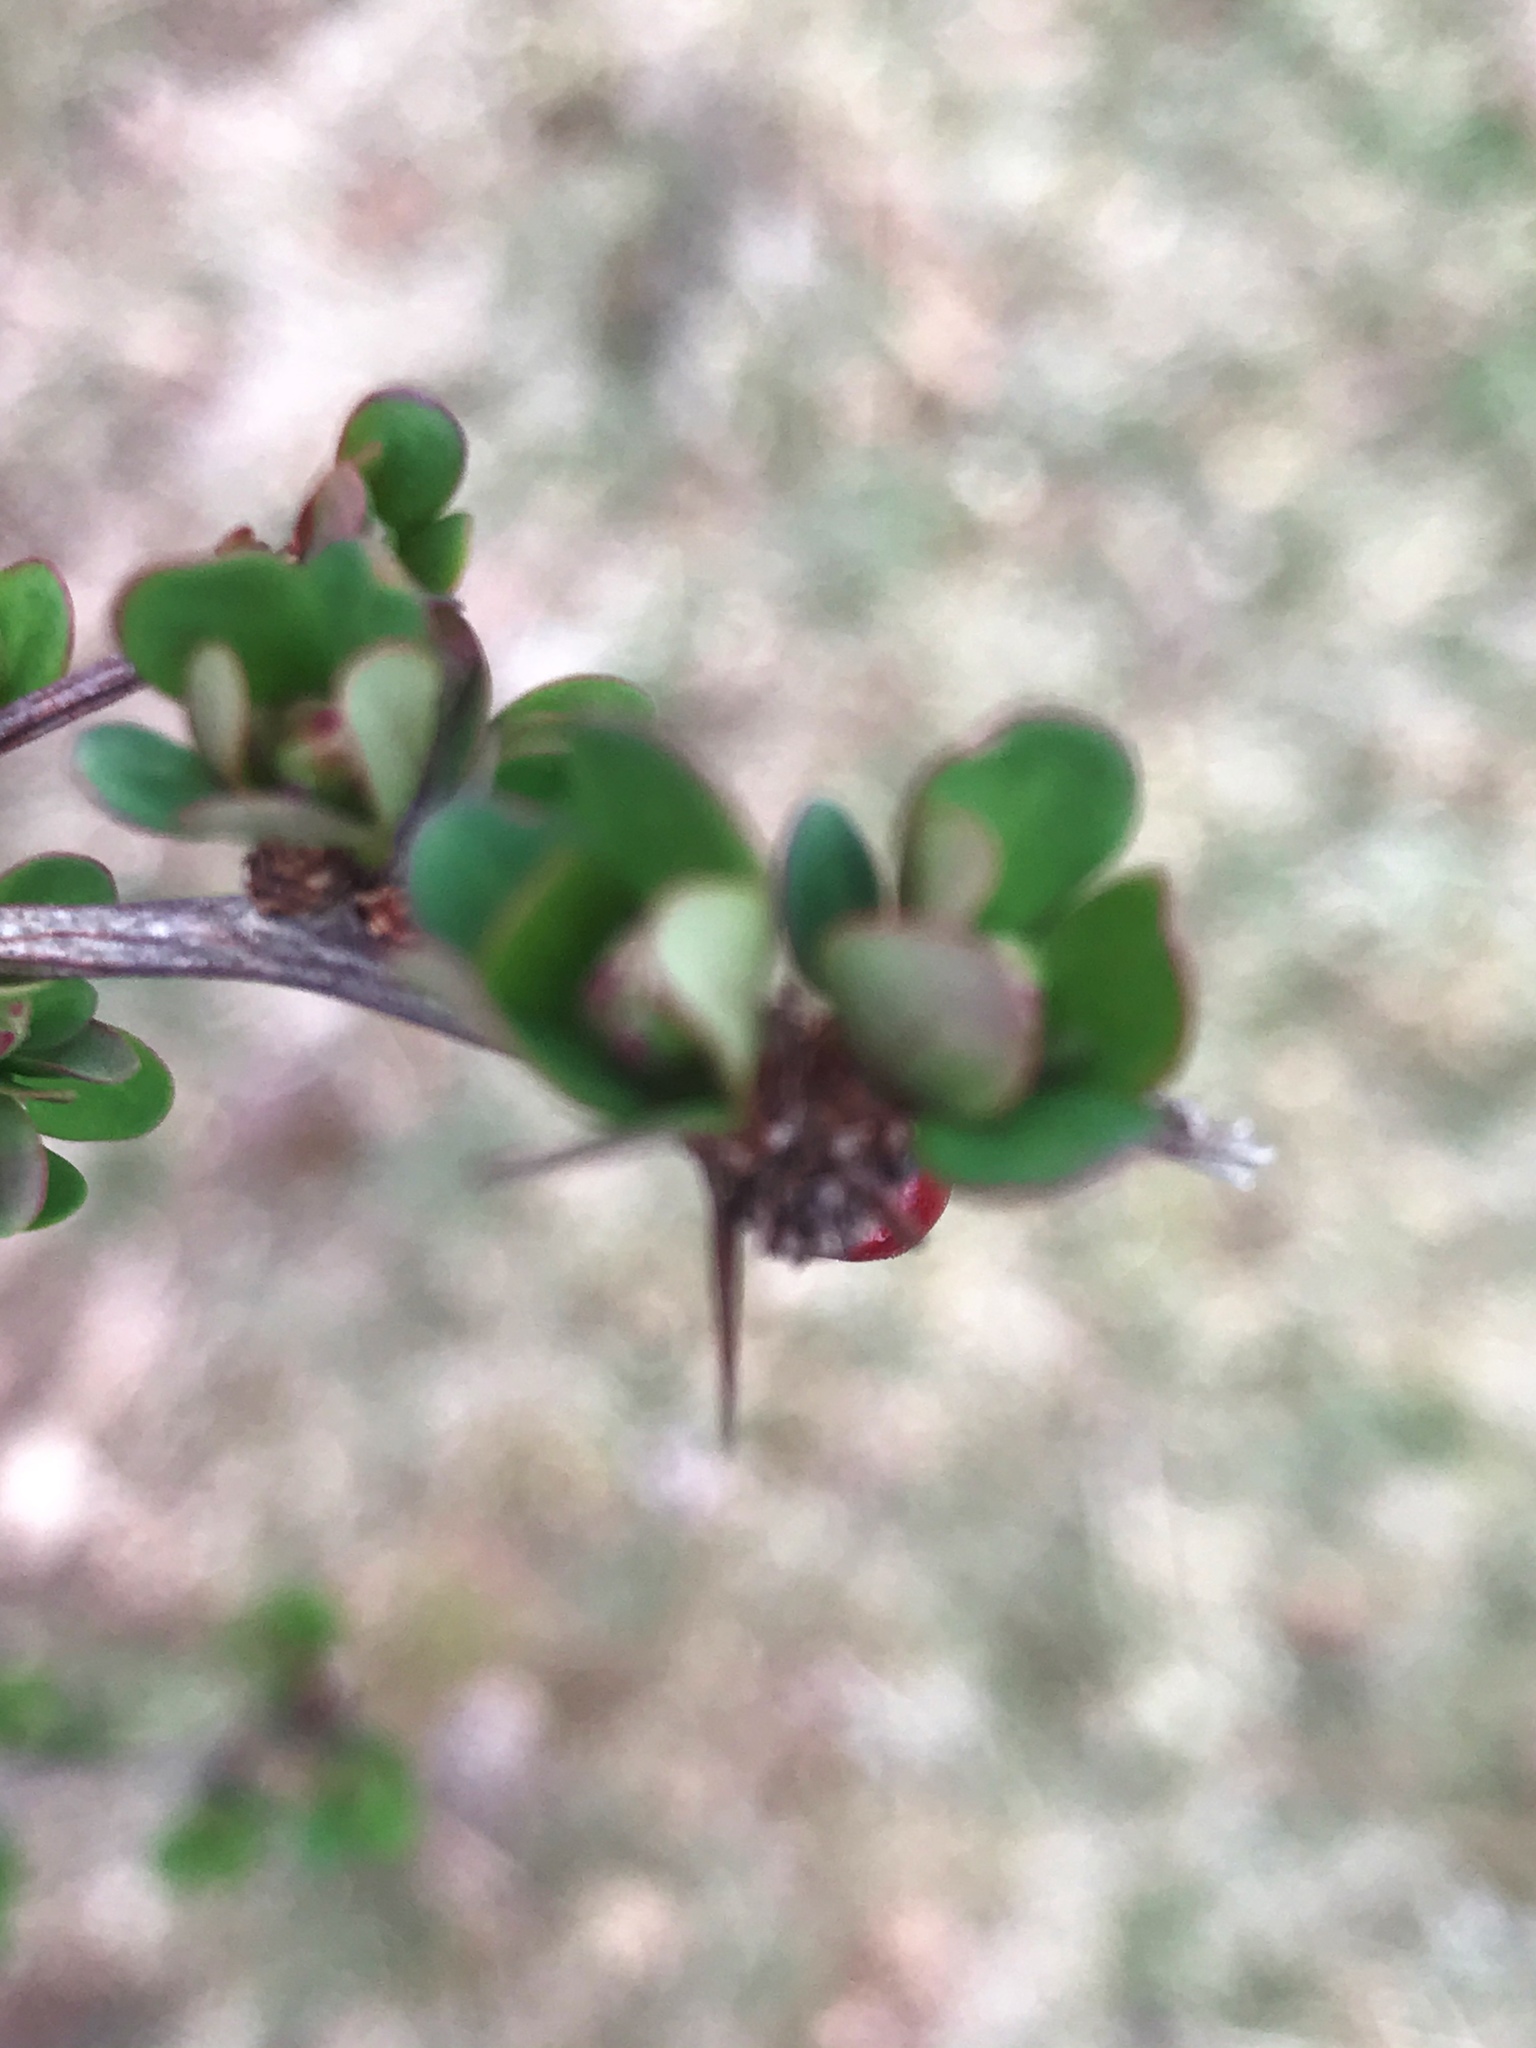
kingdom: Plantae
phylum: Tracheophyta
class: Magnoliopsida
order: Ranunculales
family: Berberidaceae
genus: Berberis
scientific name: Berberis thunbergii
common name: Japanese barberry
